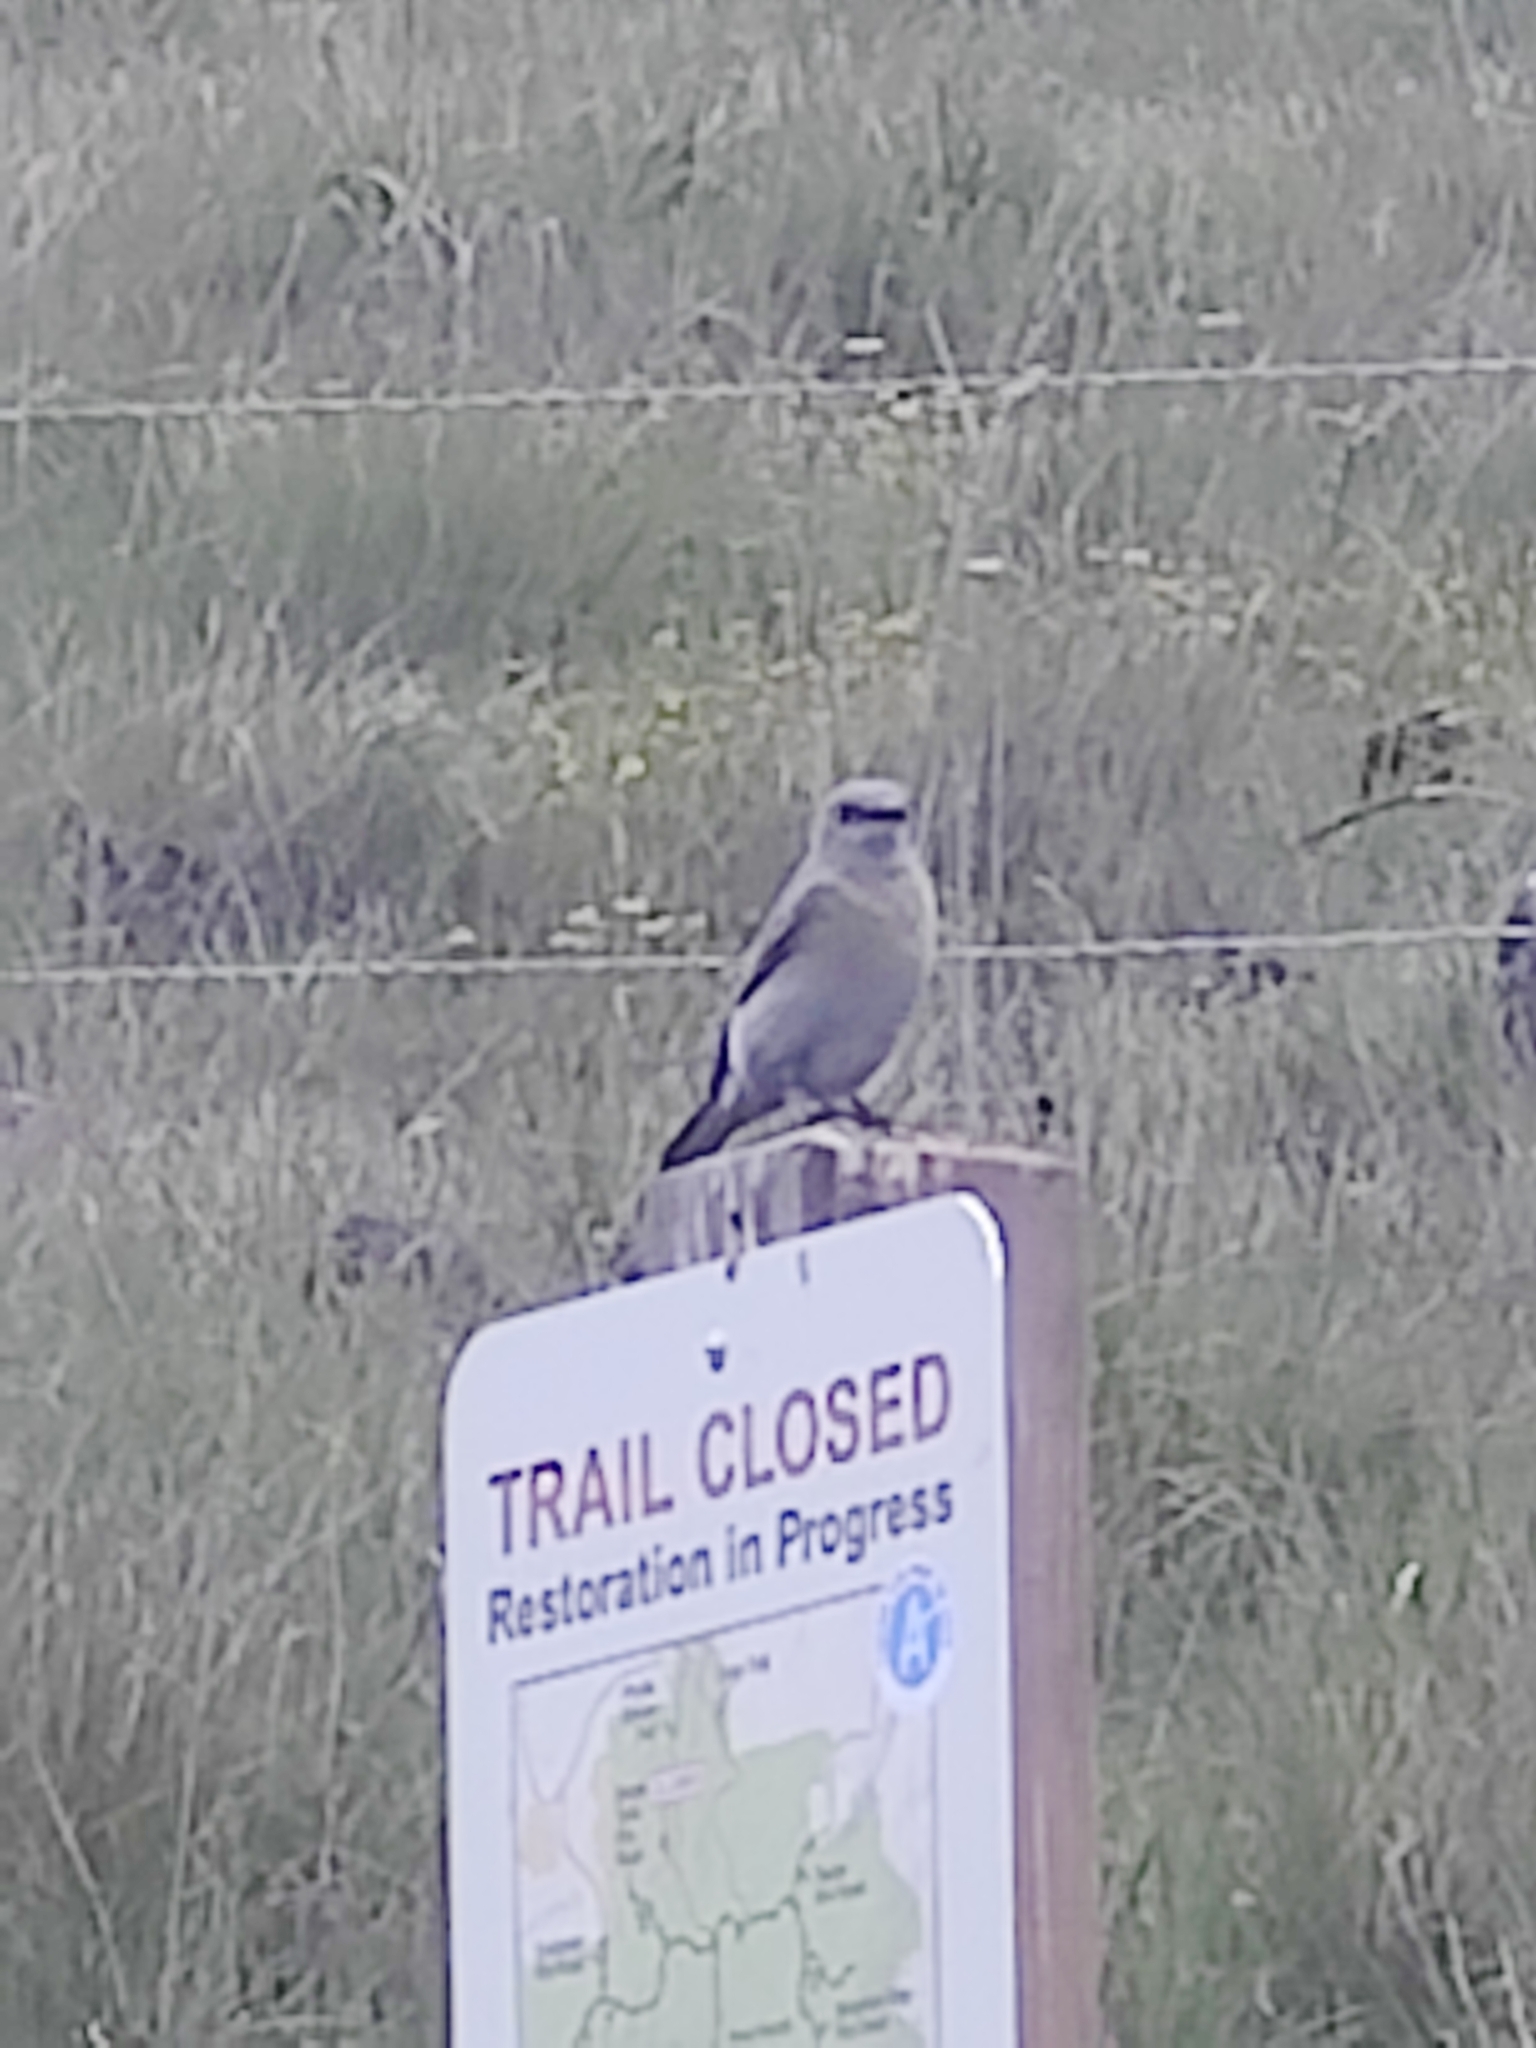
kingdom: Animalia
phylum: Chordata
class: Aves
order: Passeriformes
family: Turdidae
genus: Sialia
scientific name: Sialia mexicana
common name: Western bluebird
